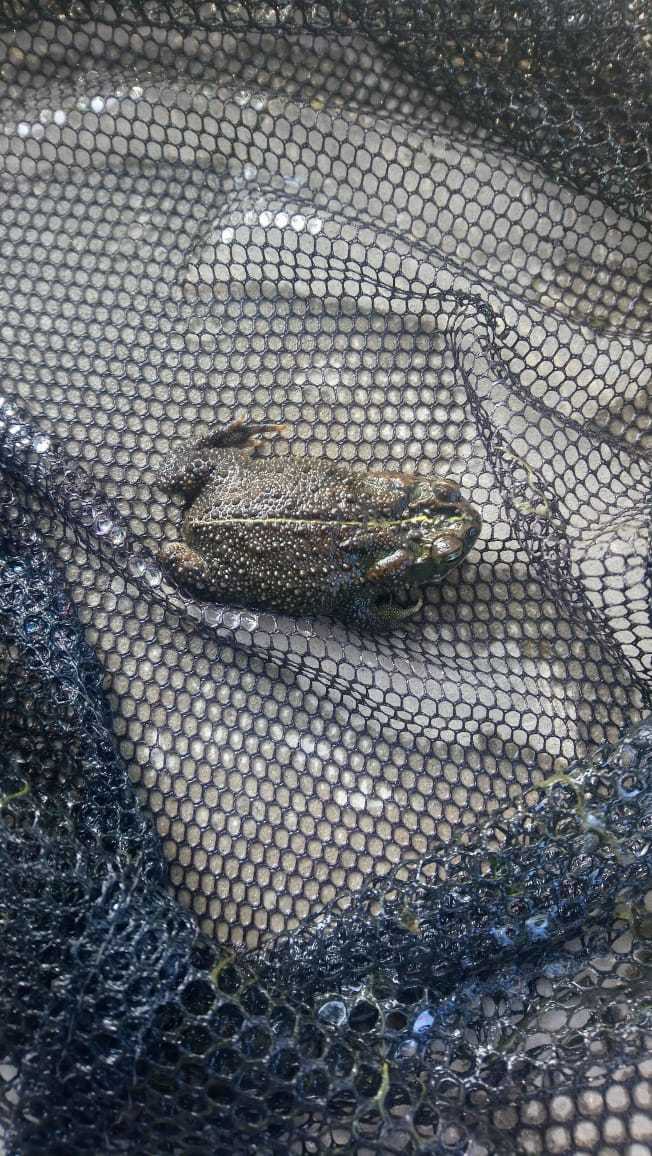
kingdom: Animalia
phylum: Chordata
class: Amphibia
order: Anura
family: Bufonidae
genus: Rhinella
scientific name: Rhinella dorbignyi
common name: D´orbigny’s toad
